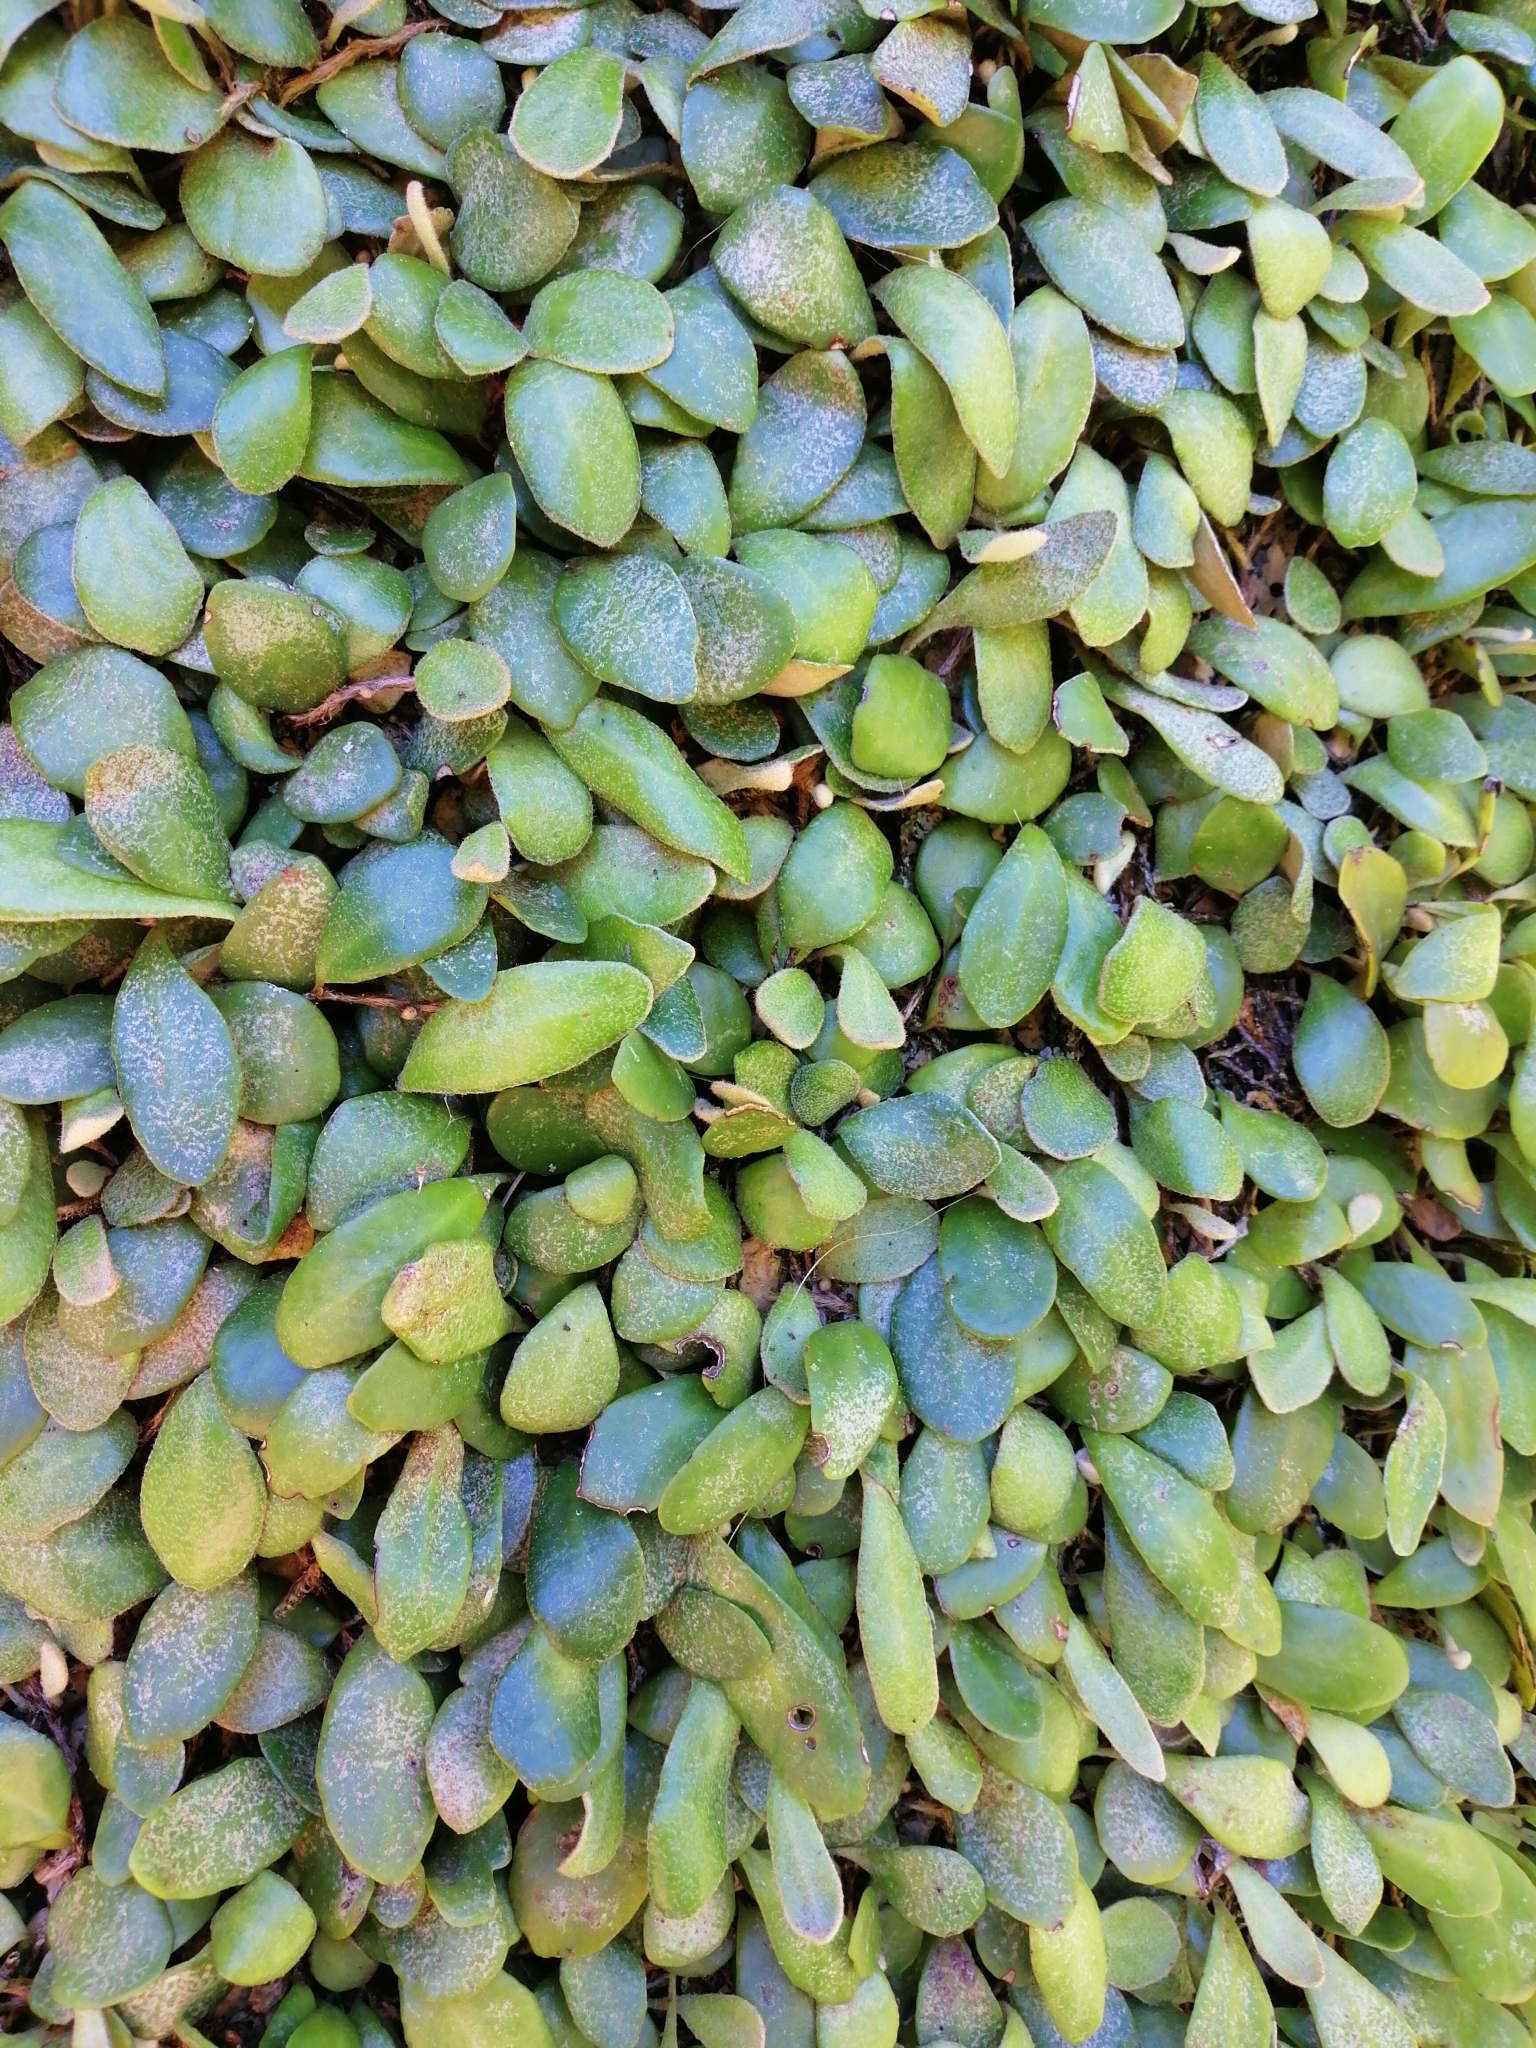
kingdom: Plantae
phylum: Tracheophyta
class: Polypodiopsida
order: Polypodiales
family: Polypodiaceae
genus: Pyrrosia
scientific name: Pyrrosia eleagnifolia
